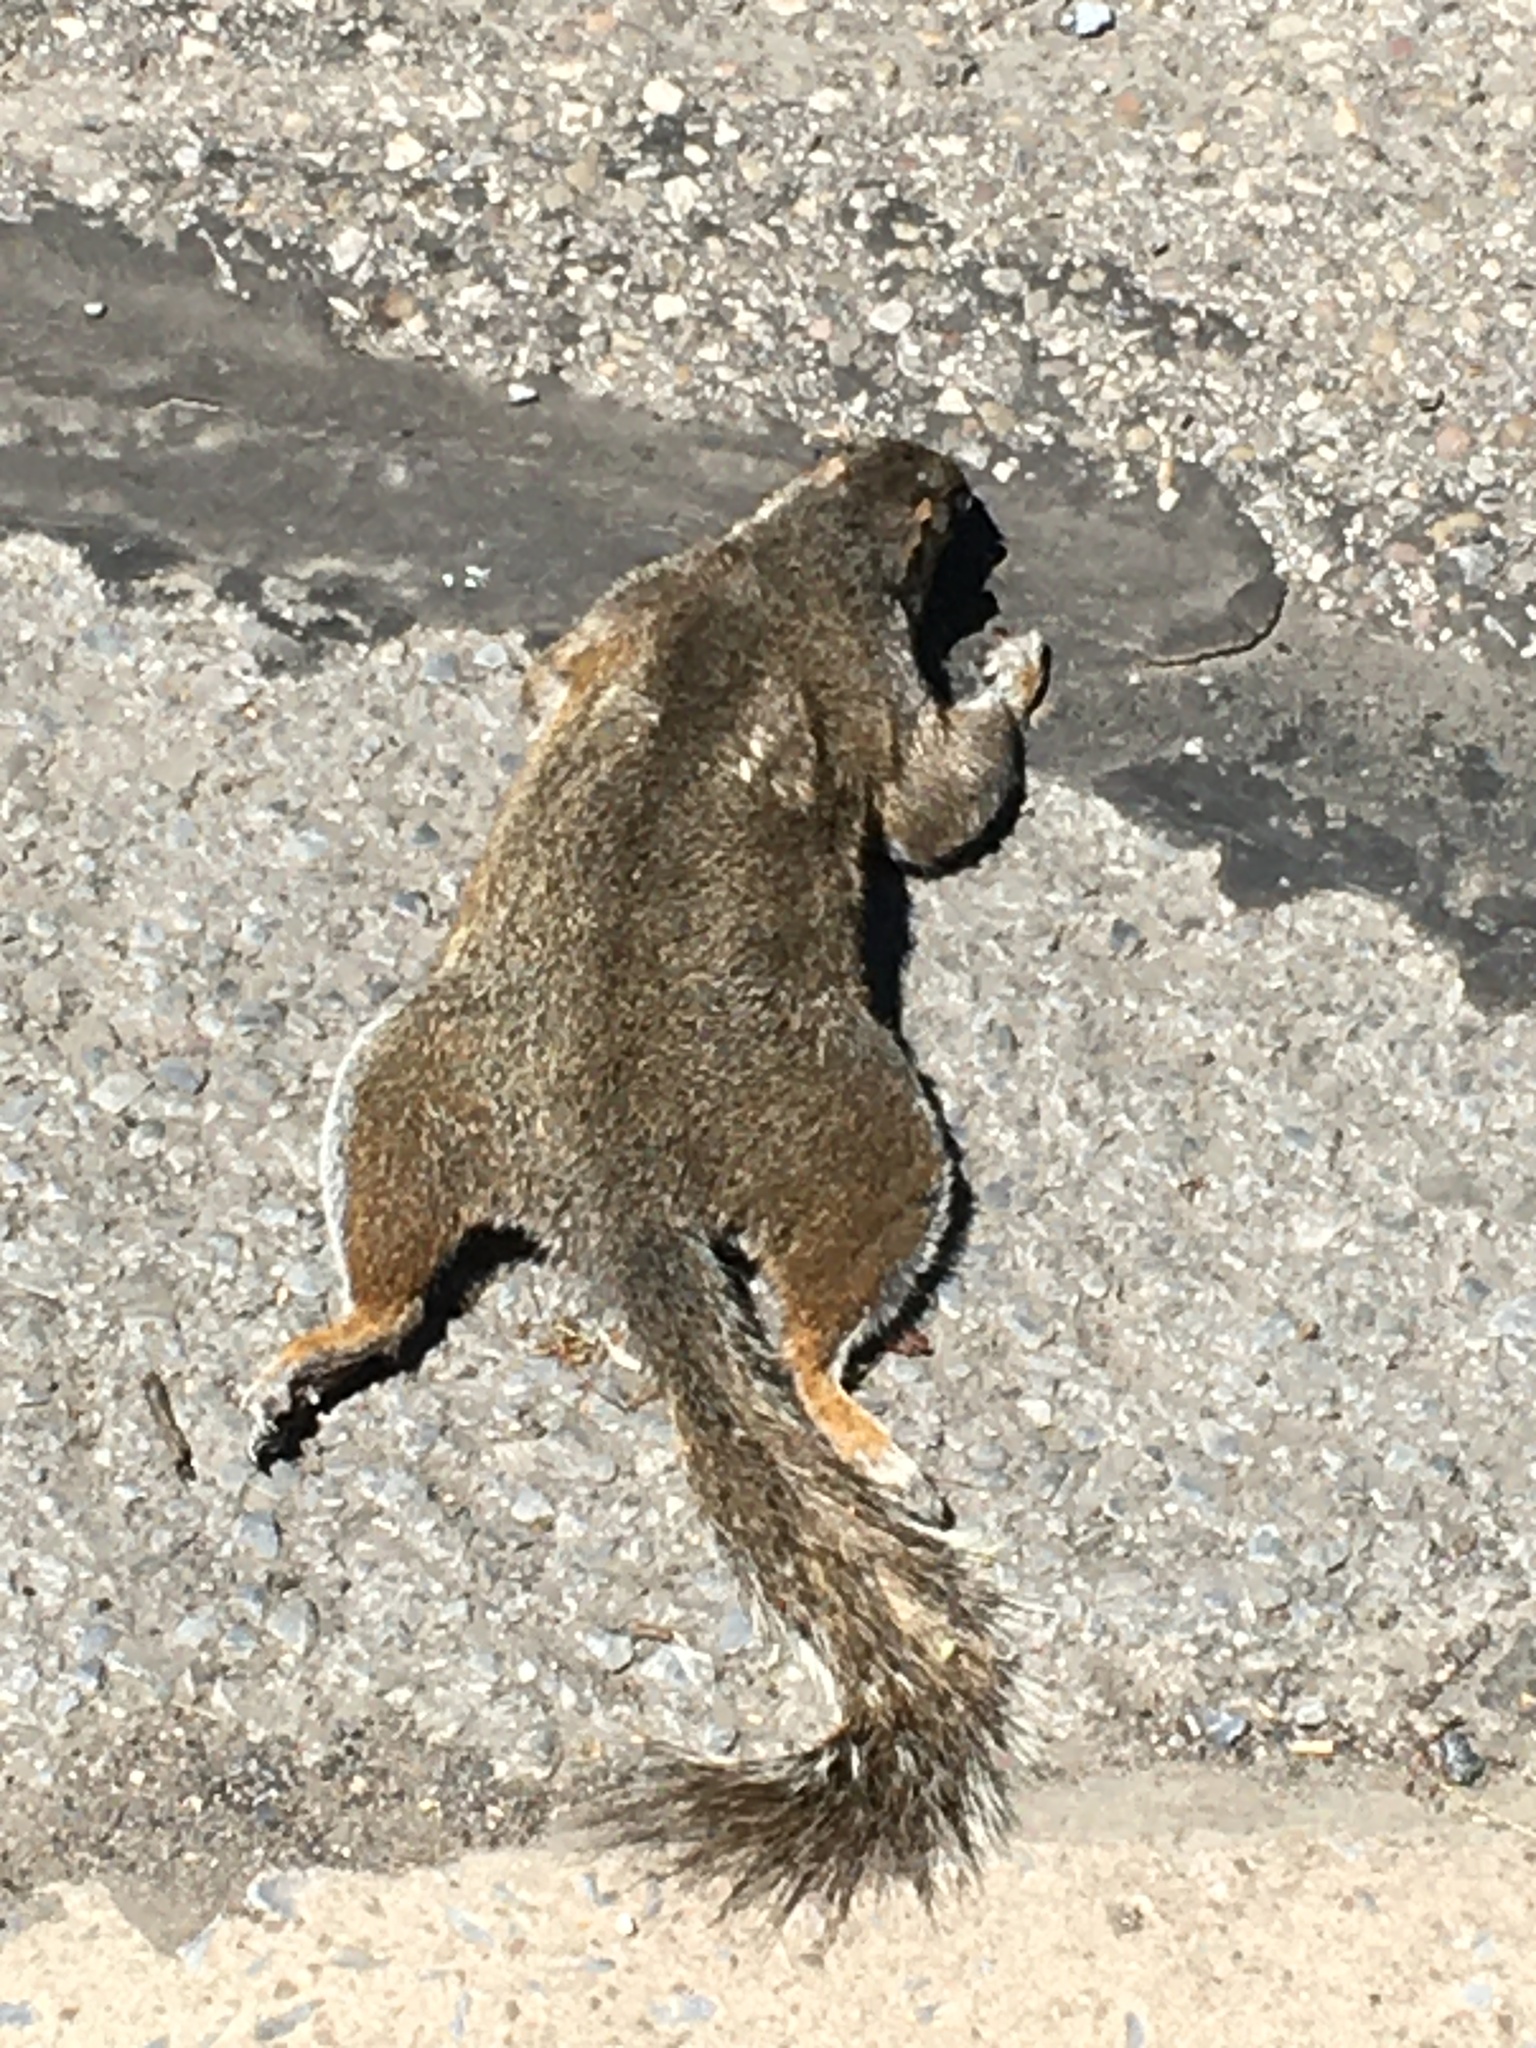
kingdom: Animalia
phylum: Chordata
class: Mammalia
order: Rodentia
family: Sciuridae
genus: Sciurus
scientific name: Sciurus carolinensis
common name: Eastern gray squirrel
